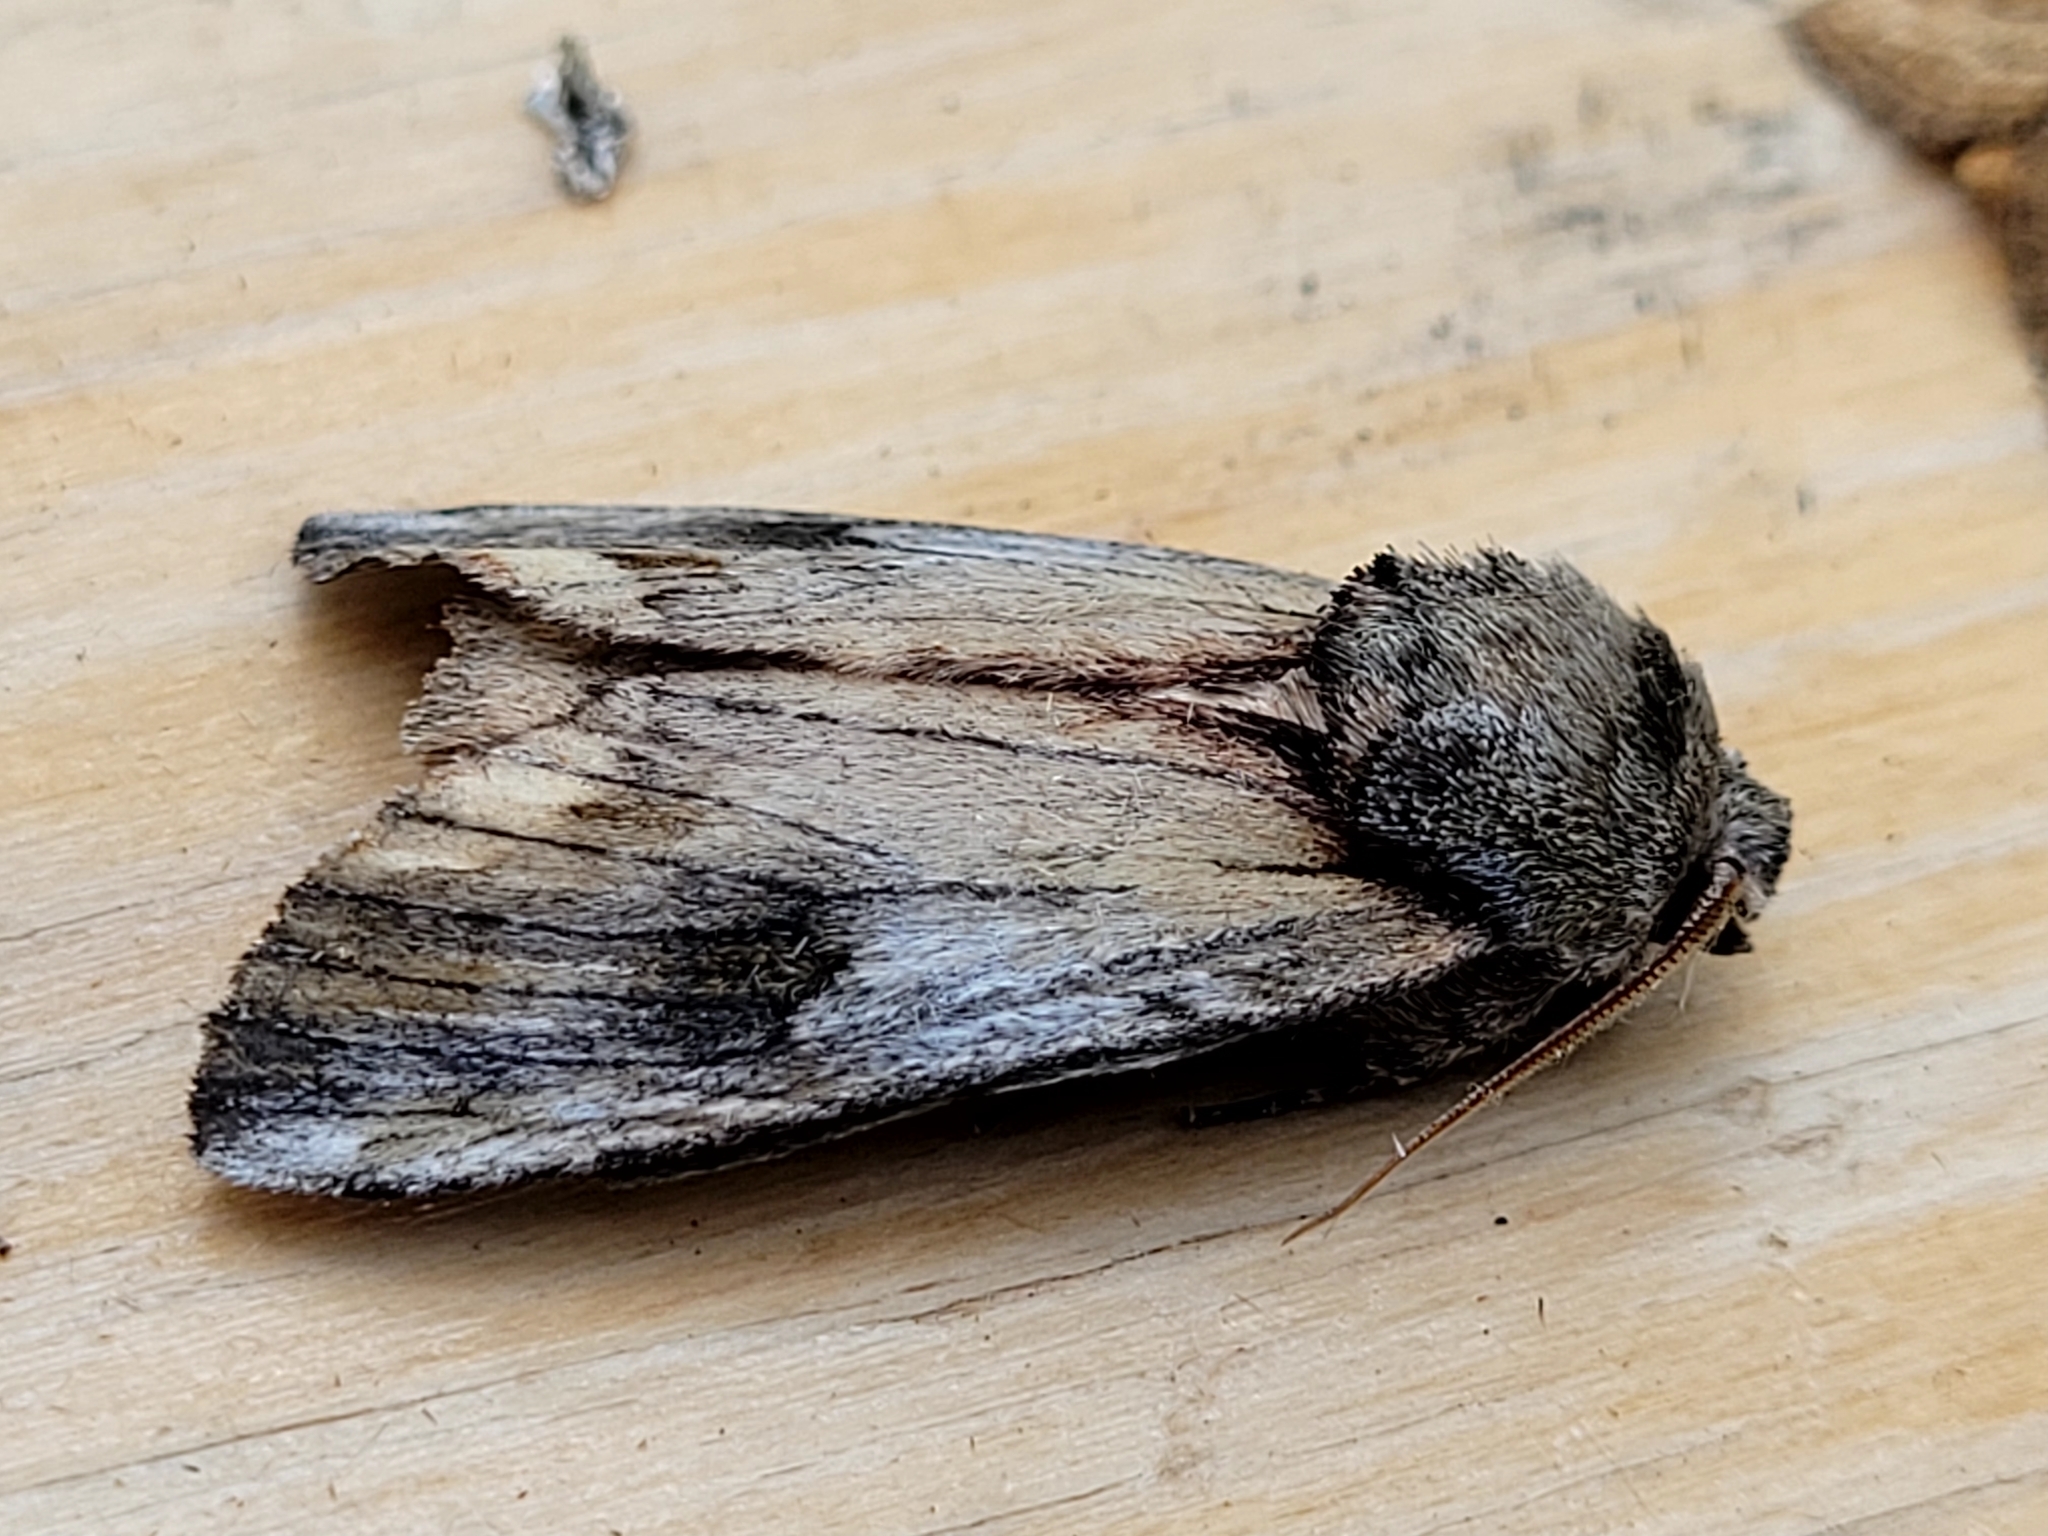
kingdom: Animalia
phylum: Arthropoda
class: Insecta
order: Lepidoptera
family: Notodontidae
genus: Schizura
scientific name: Schizura
